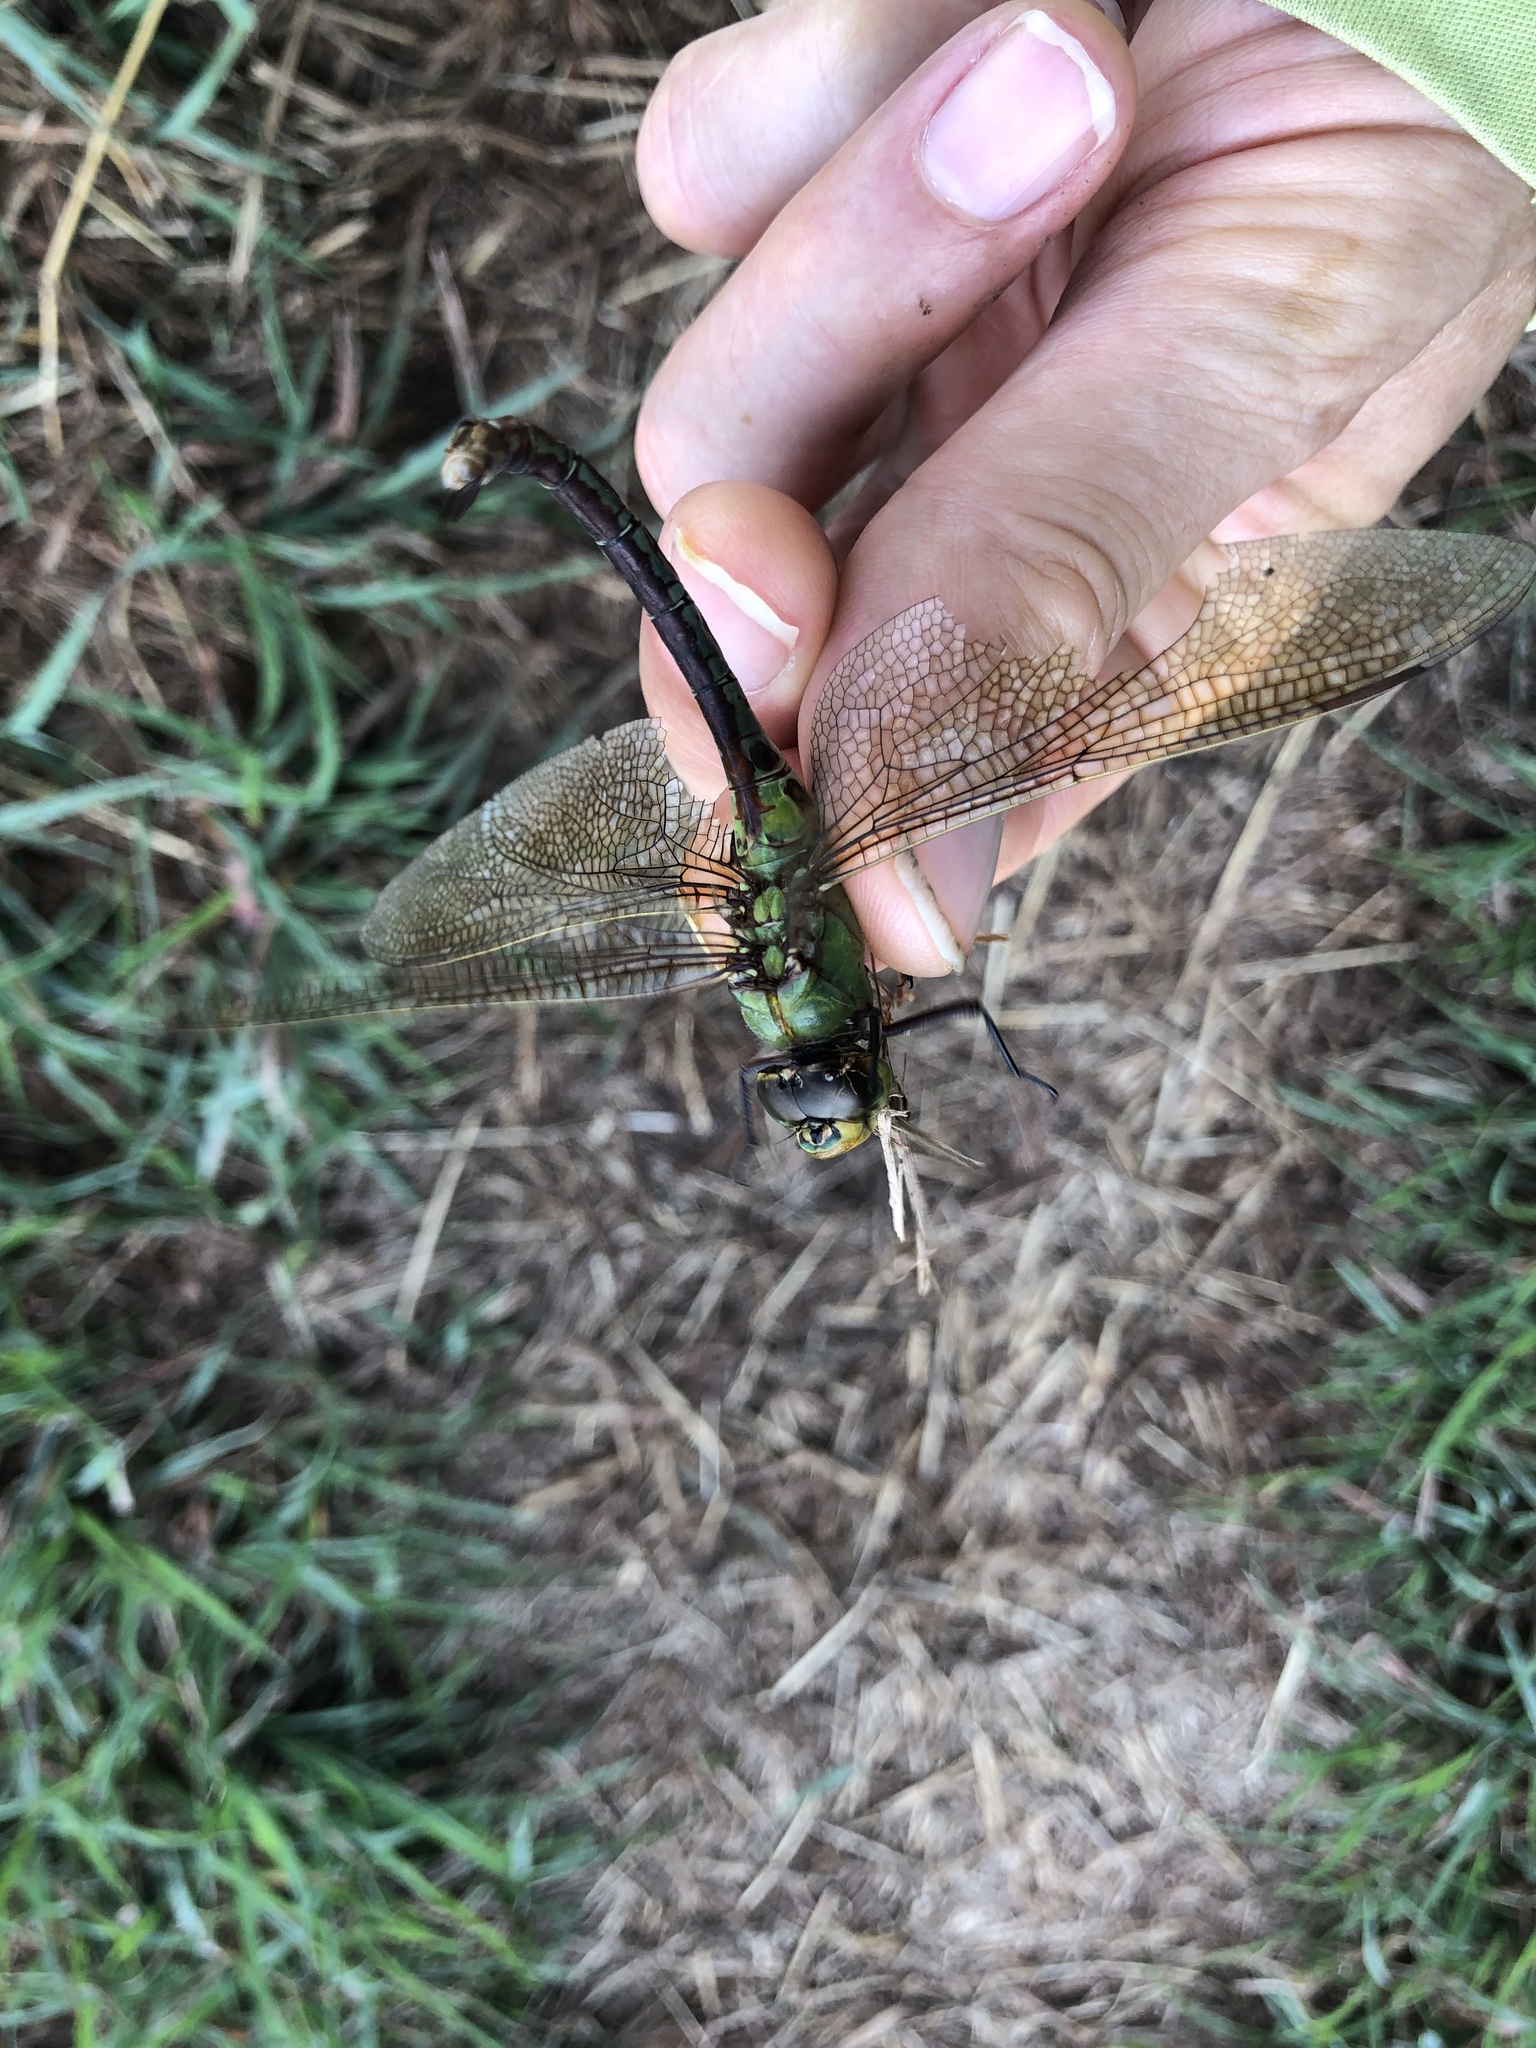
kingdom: Animalia
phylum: Arthropoda
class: Insecta
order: Odonata
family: Aeshnidae
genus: Anax
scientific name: Anax junius
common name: Common green darner
